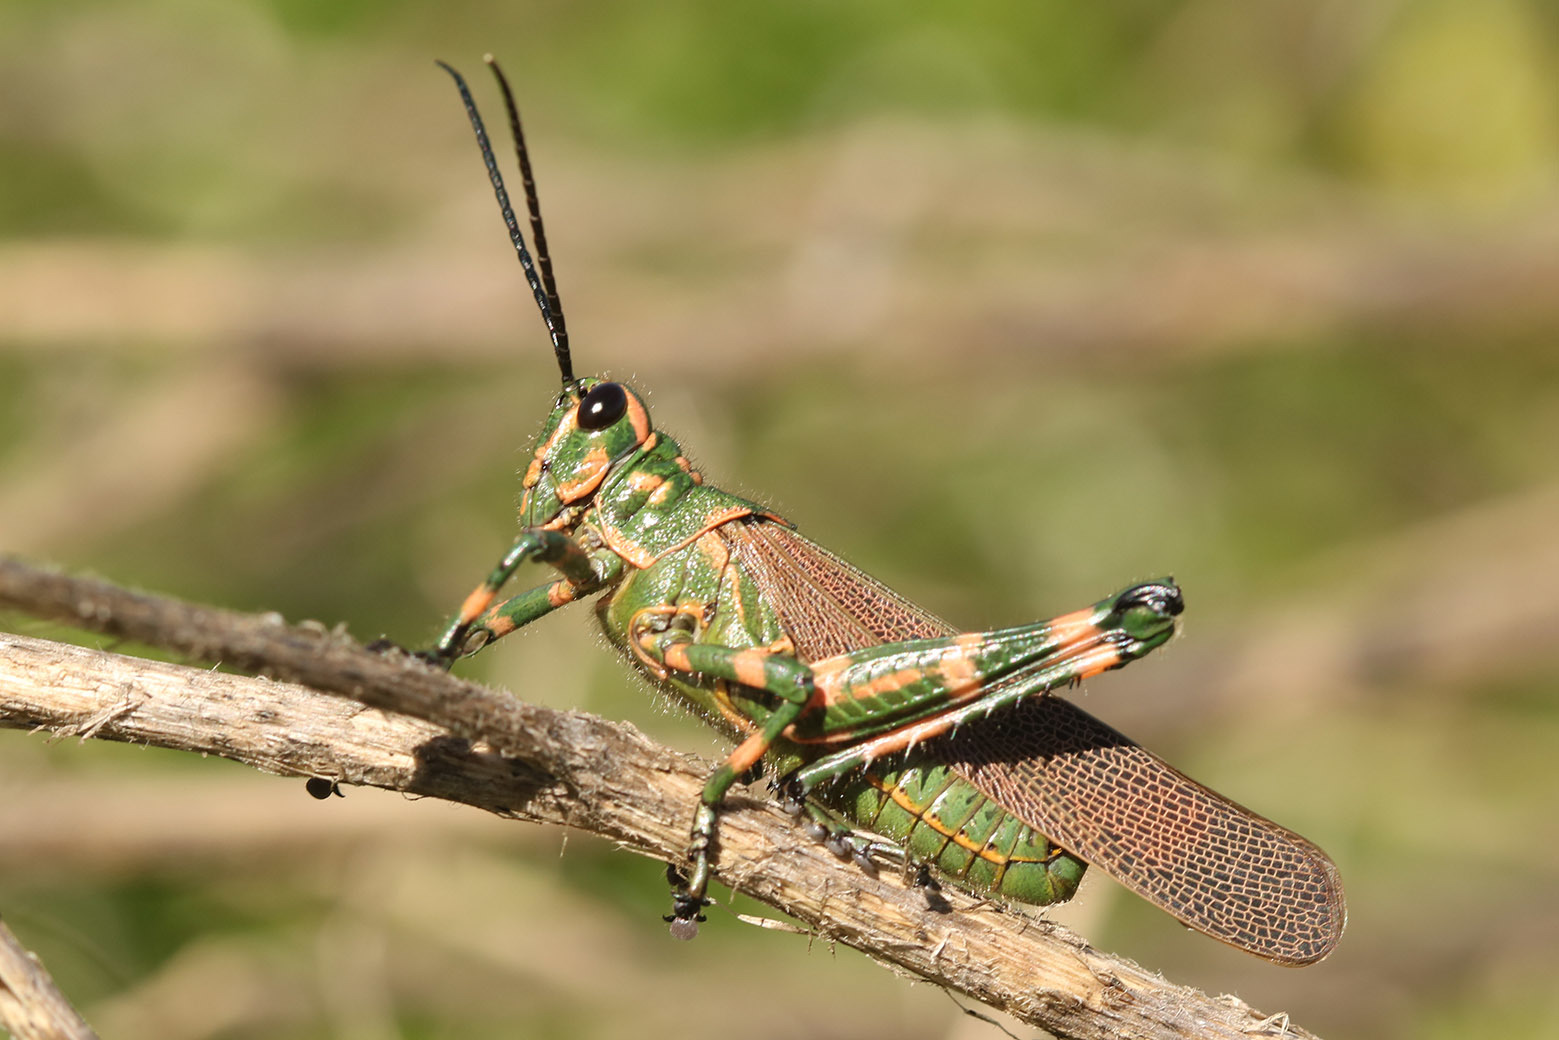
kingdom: Animalia
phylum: Arthropoda
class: Insecta
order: Orthoptera
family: Romaleidae
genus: Chromacris
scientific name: Chromacris speciosa
